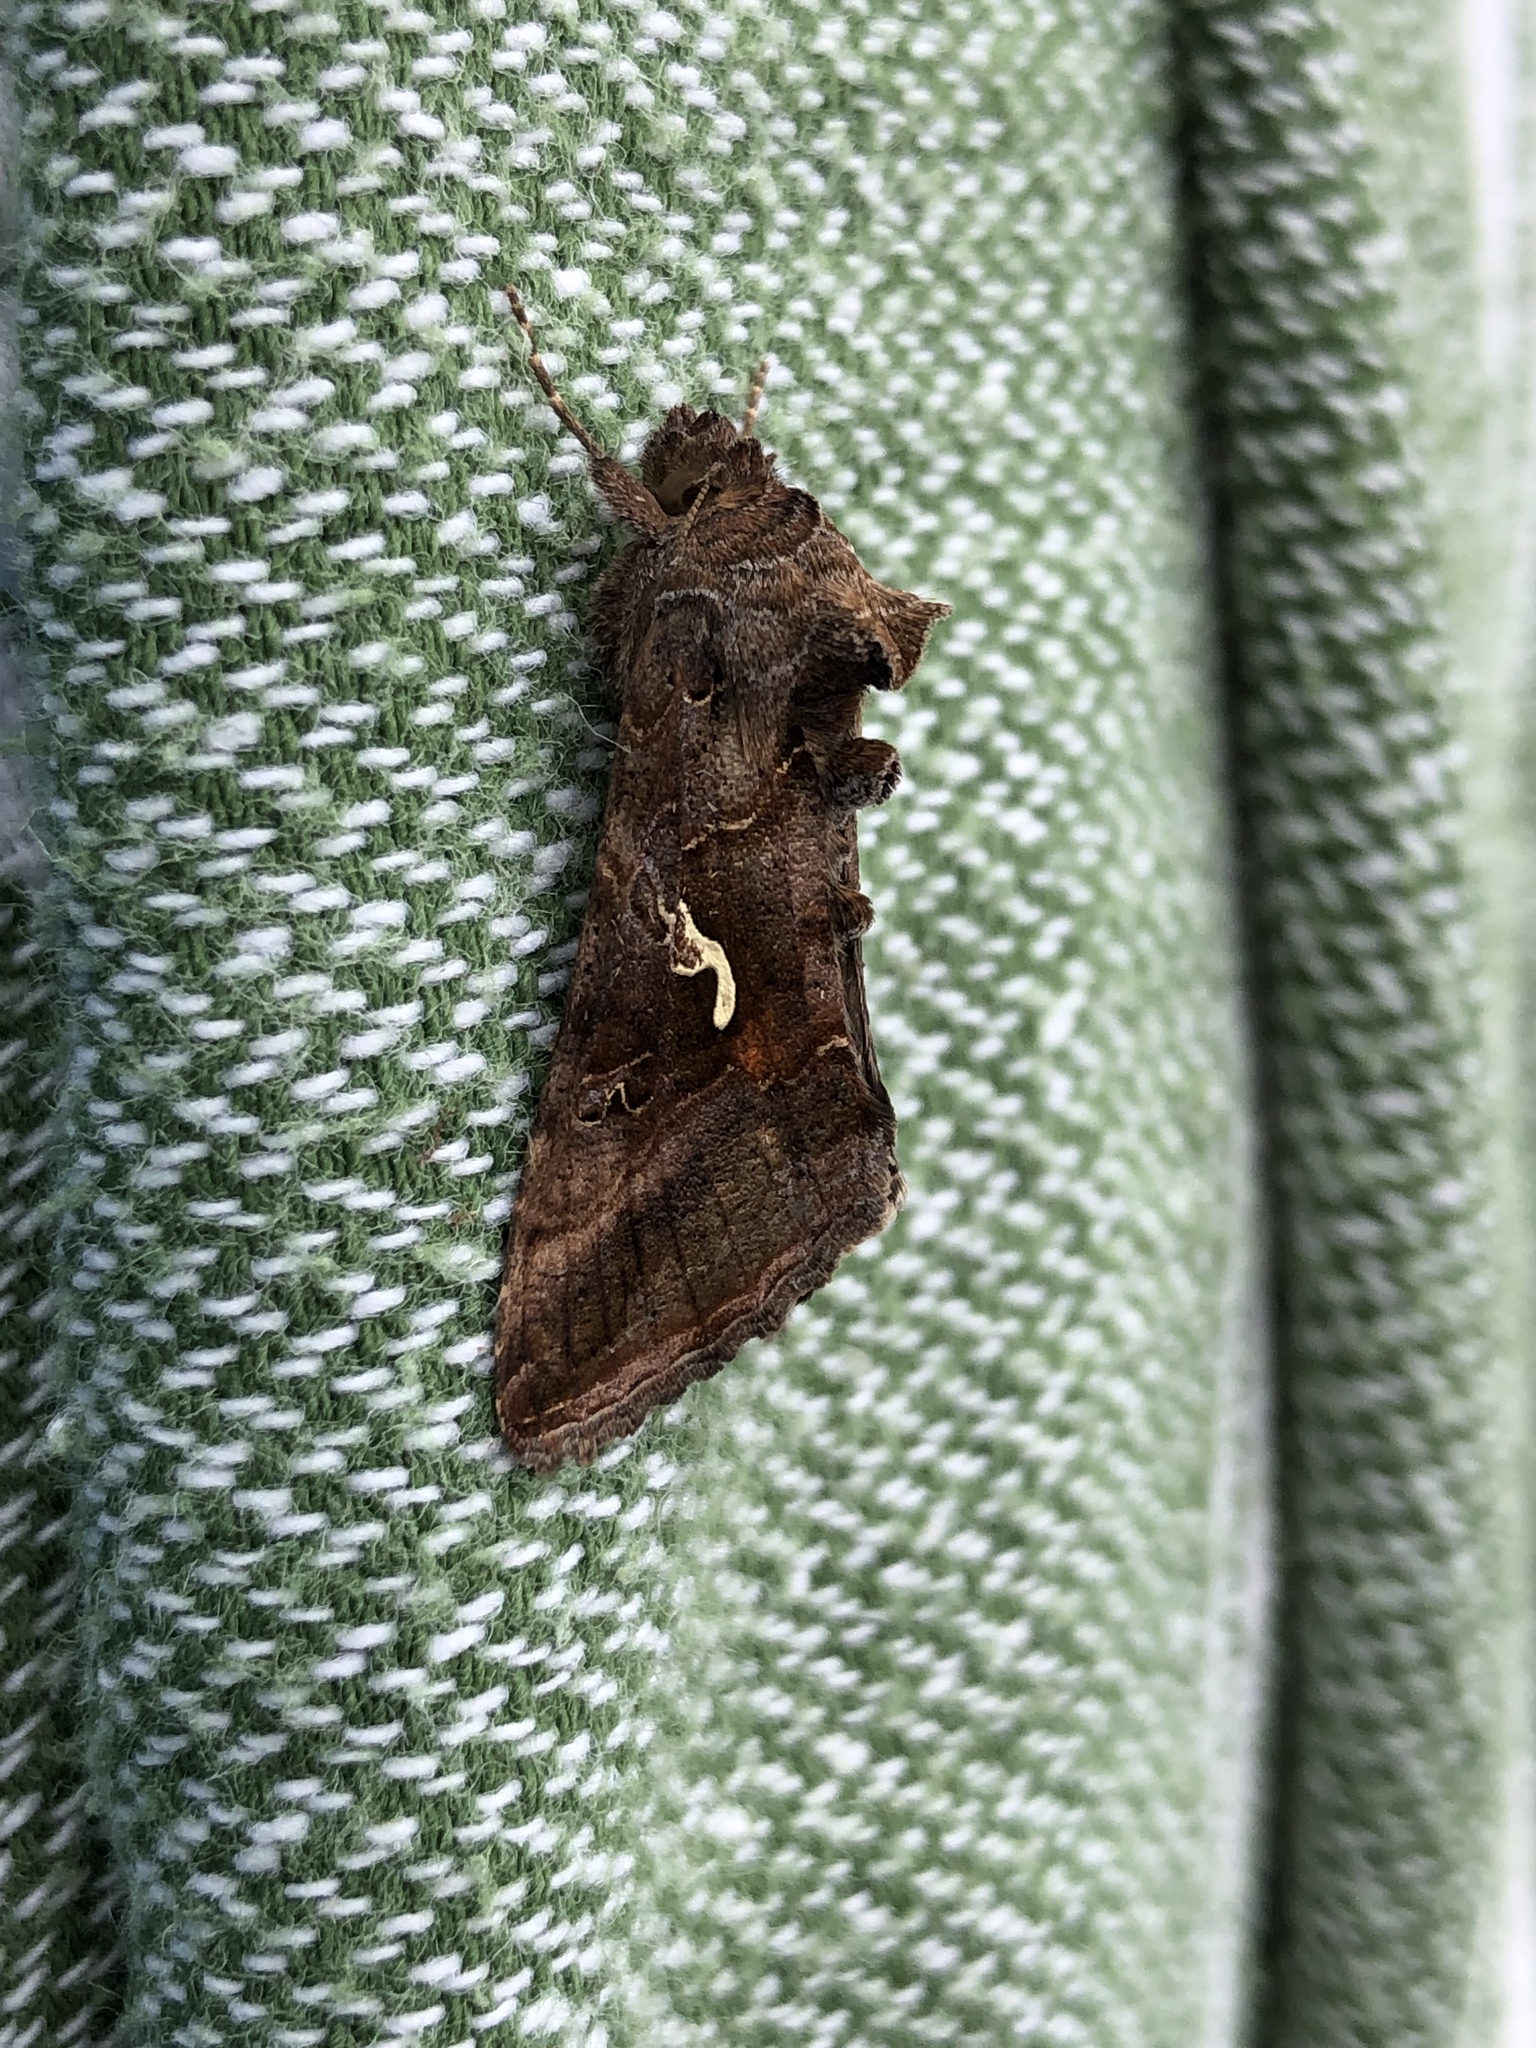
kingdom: Animalia
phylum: Arthropoda
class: Insecta
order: Lepidoptera
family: Noctuidae
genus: Autographa
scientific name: Autographa gamma
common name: Silver y
